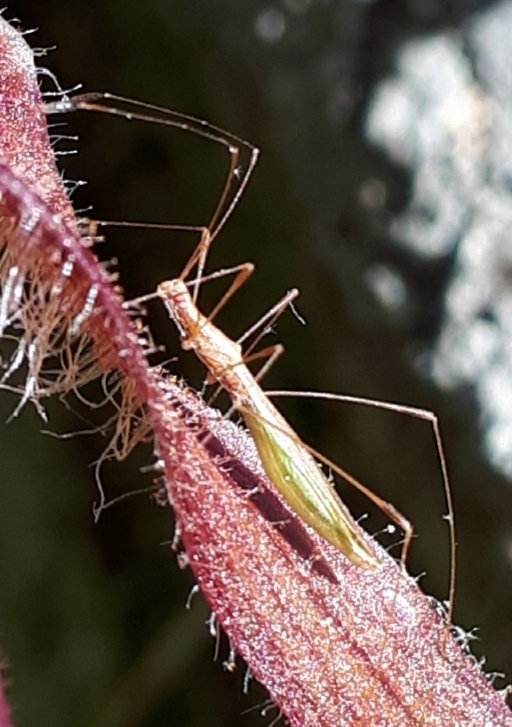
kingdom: Animalia
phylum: Arthropoda
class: Insecta
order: Hemiptera
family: Berytidae
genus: Jalysus
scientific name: Jalysus
